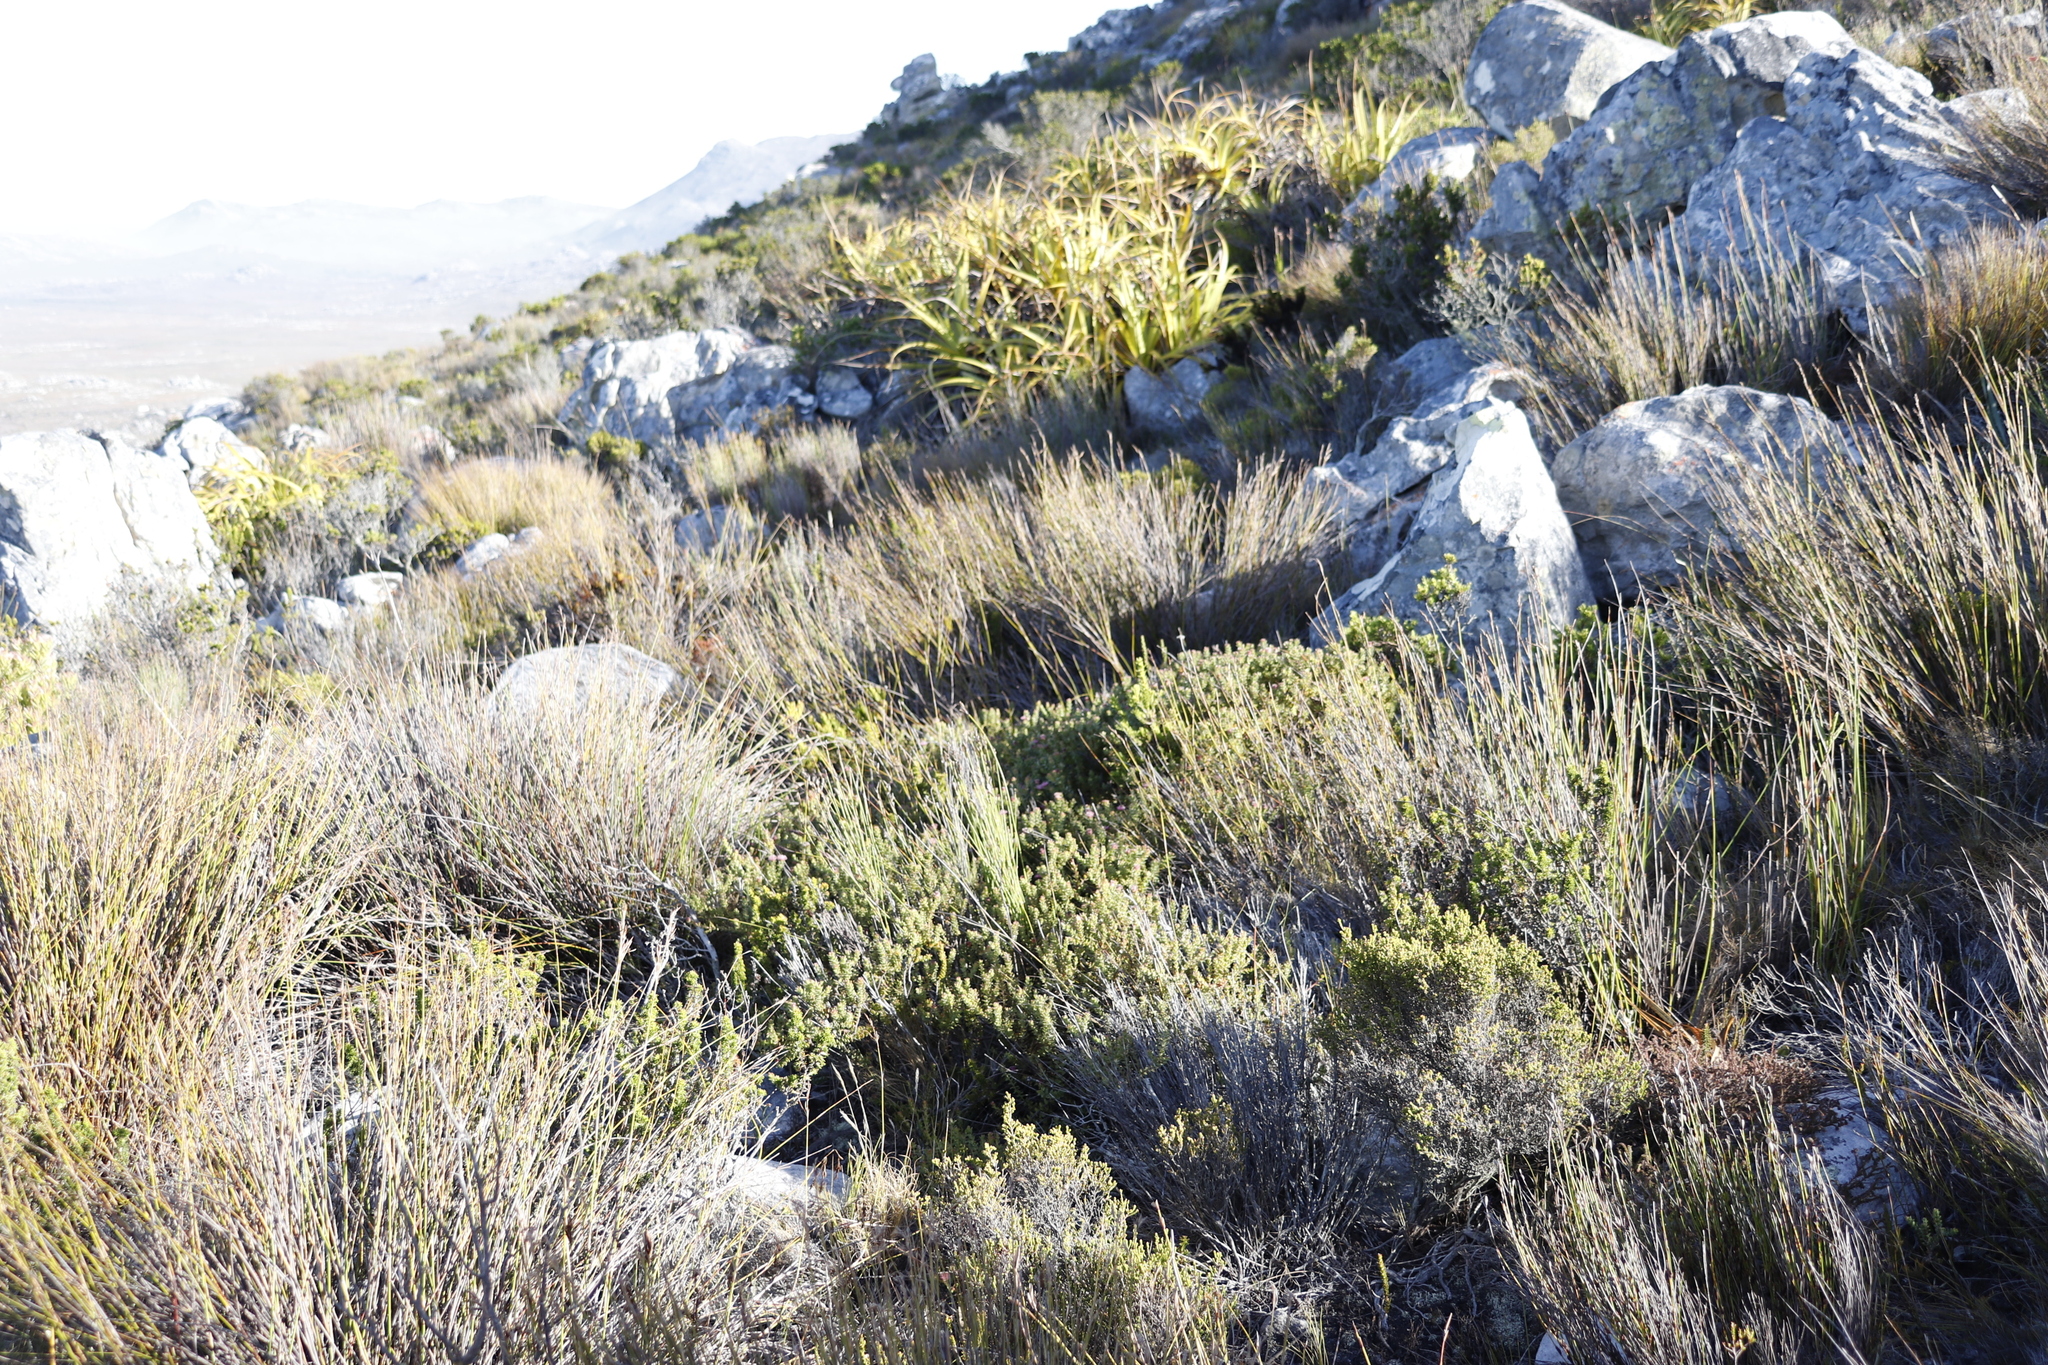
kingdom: Plantae
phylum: Tracheophyta
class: Liliopsida
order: Poales
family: Cyperaceae
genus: Tetraria
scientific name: Tetraria thermalis
